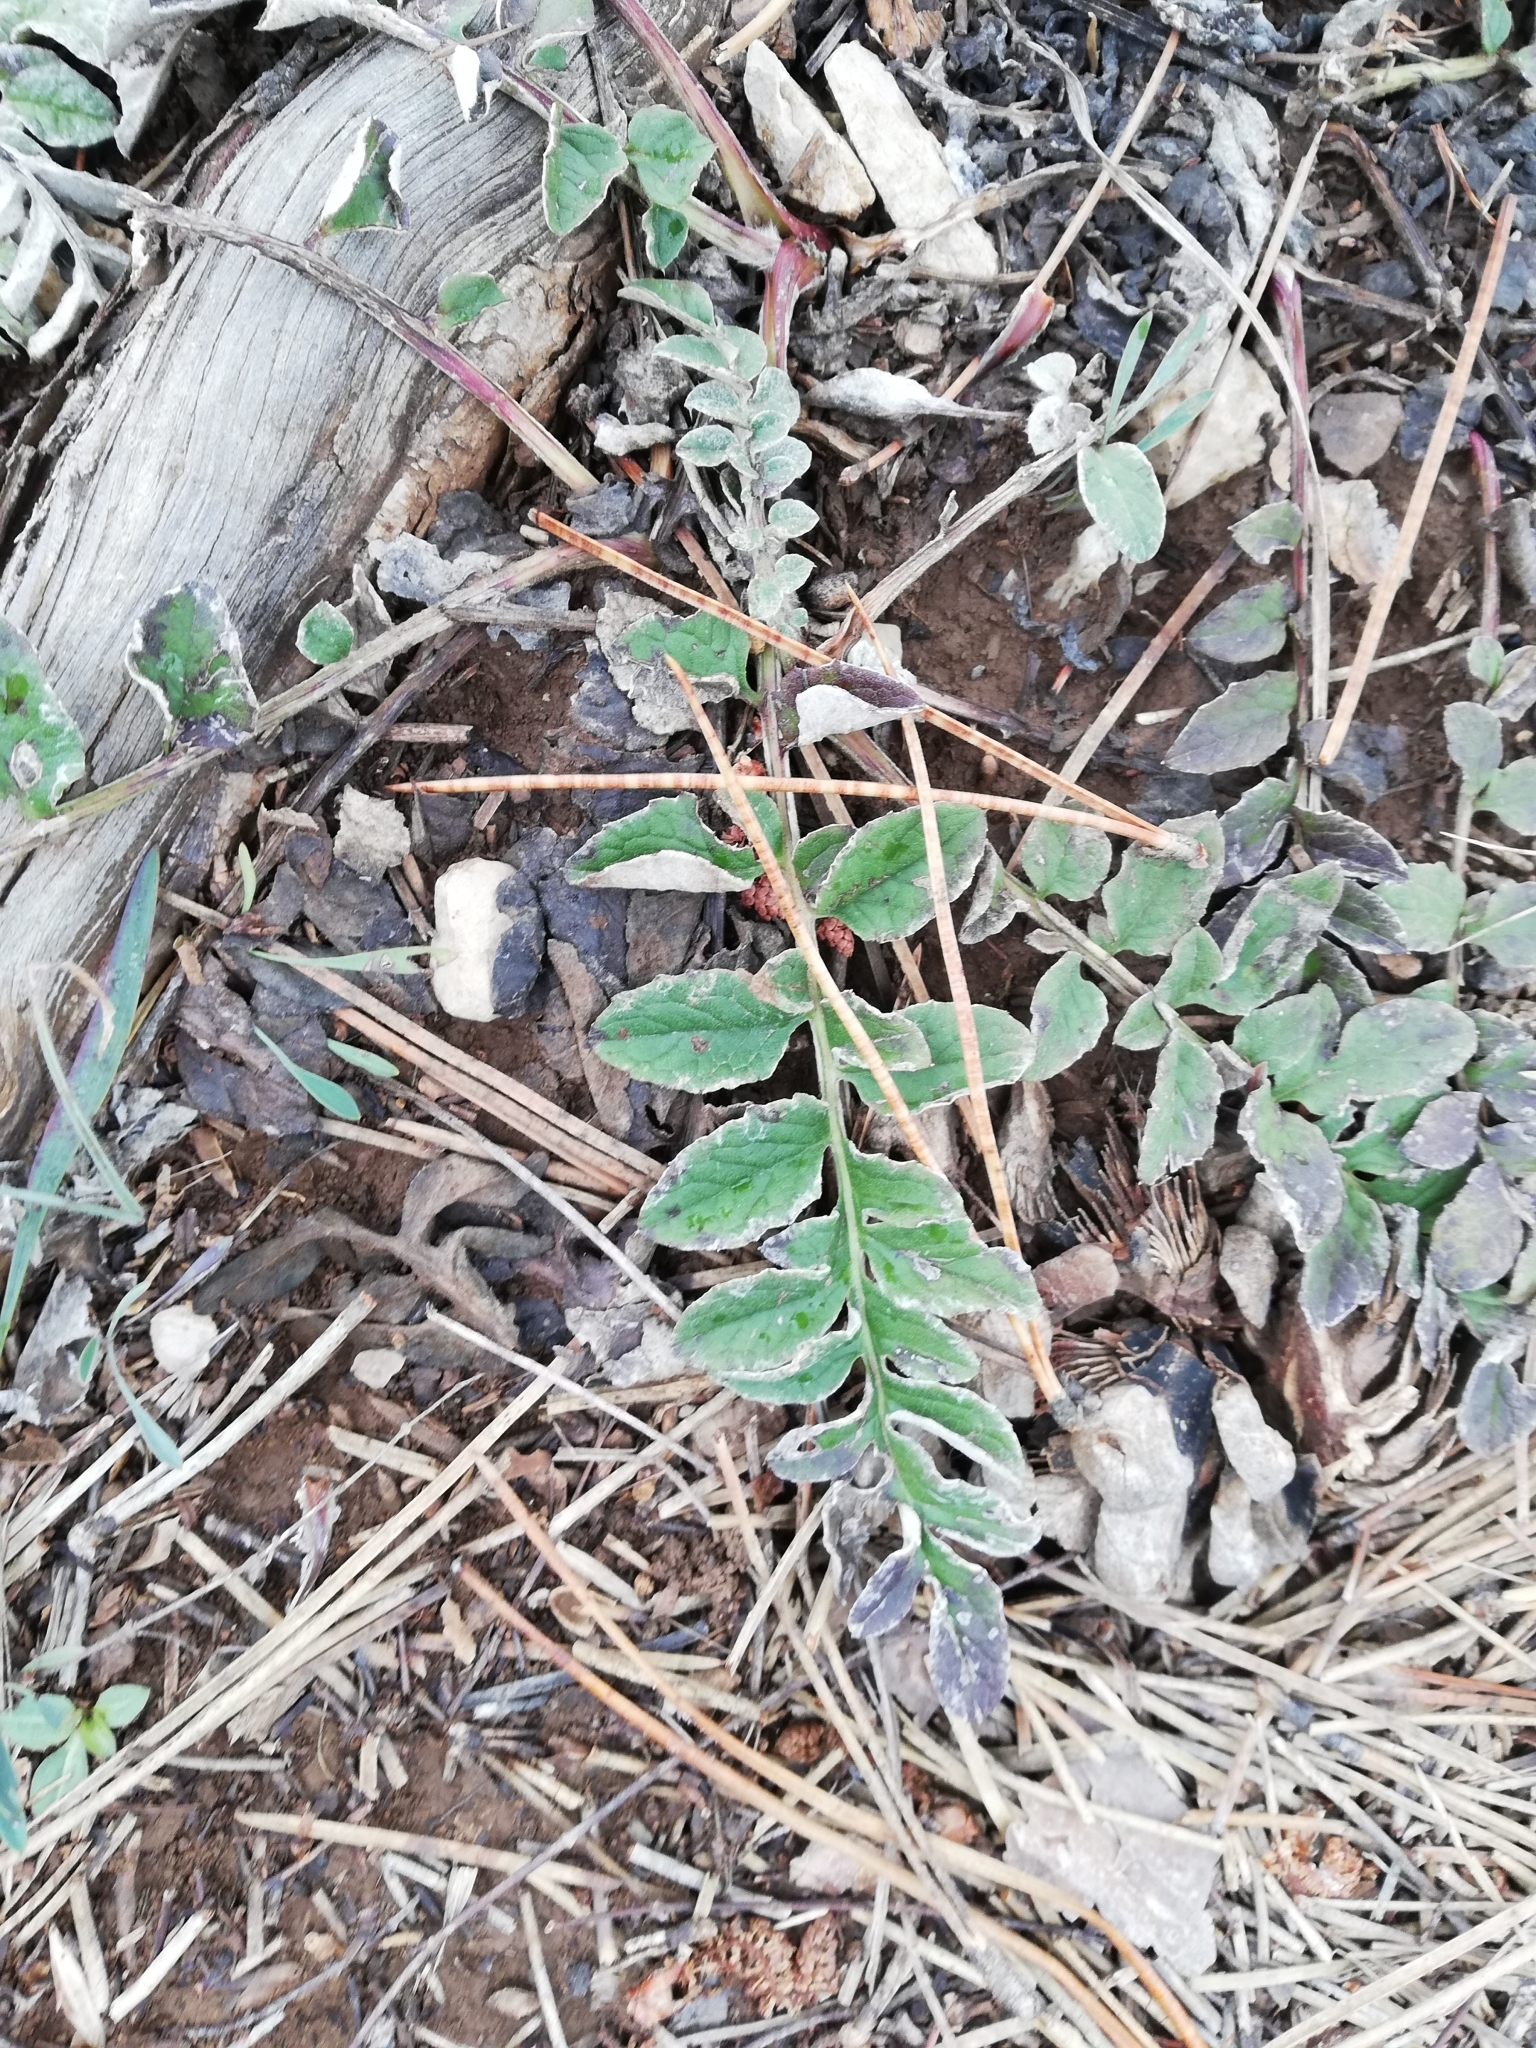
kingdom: Plantae
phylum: Tracheophyta
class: Magnoliopsida
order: Asterales
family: Asteraceae
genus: Psephellus
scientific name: Psephellus declinatus
